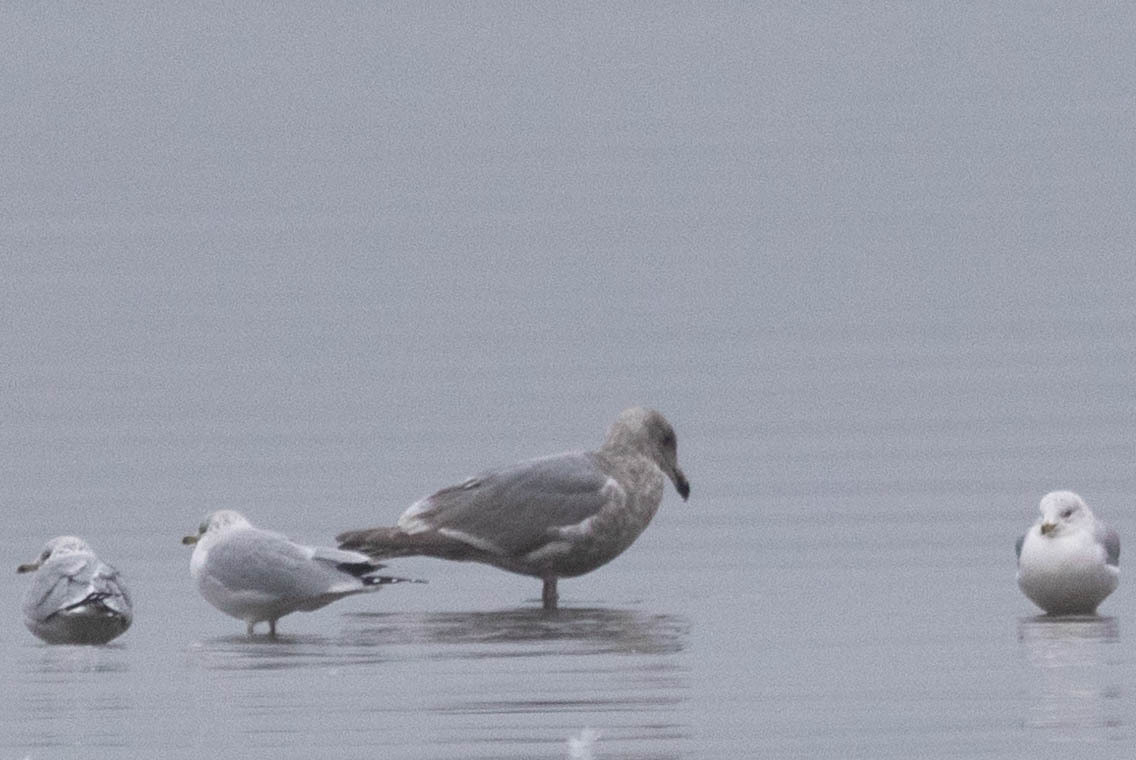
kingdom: Animalia
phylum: Chordata
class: Aves
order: Charadriiformes
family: Laridae
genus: Larus
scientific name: Larus glaucescens
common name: Glaucous-winged gull
